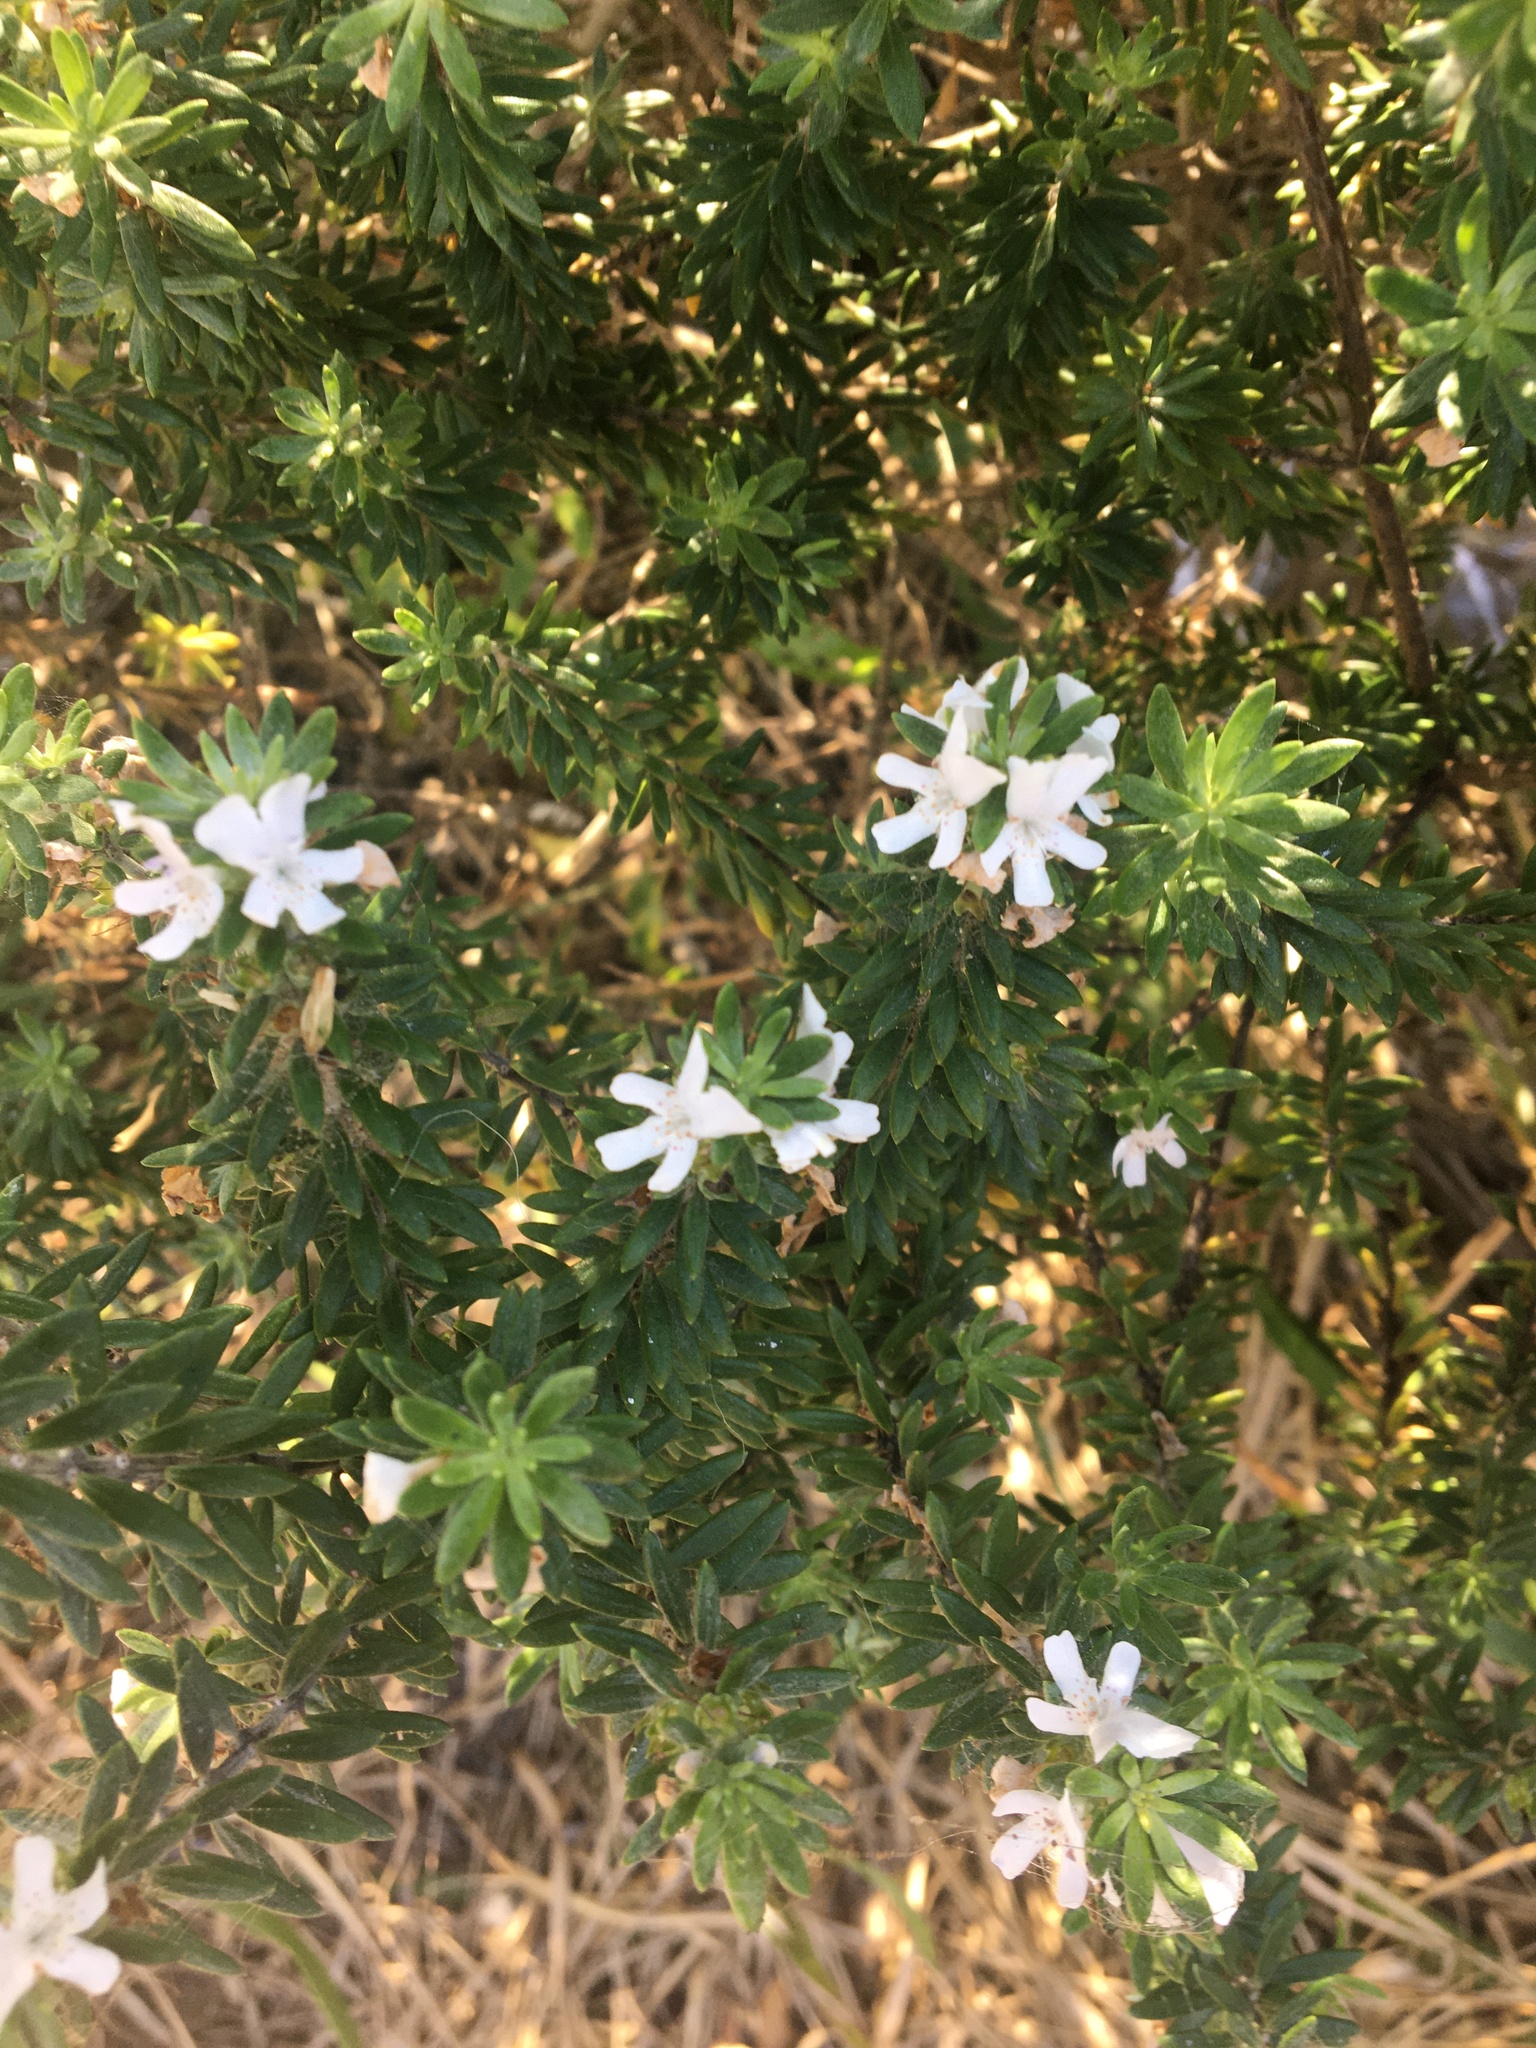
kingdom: Plantae
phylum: Tracheophyta
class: Magnoliopsida
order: Lamiales
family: Lamiaceae
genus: Westringia
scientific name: Westringia fruticosa
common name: Coastal-rosemary
